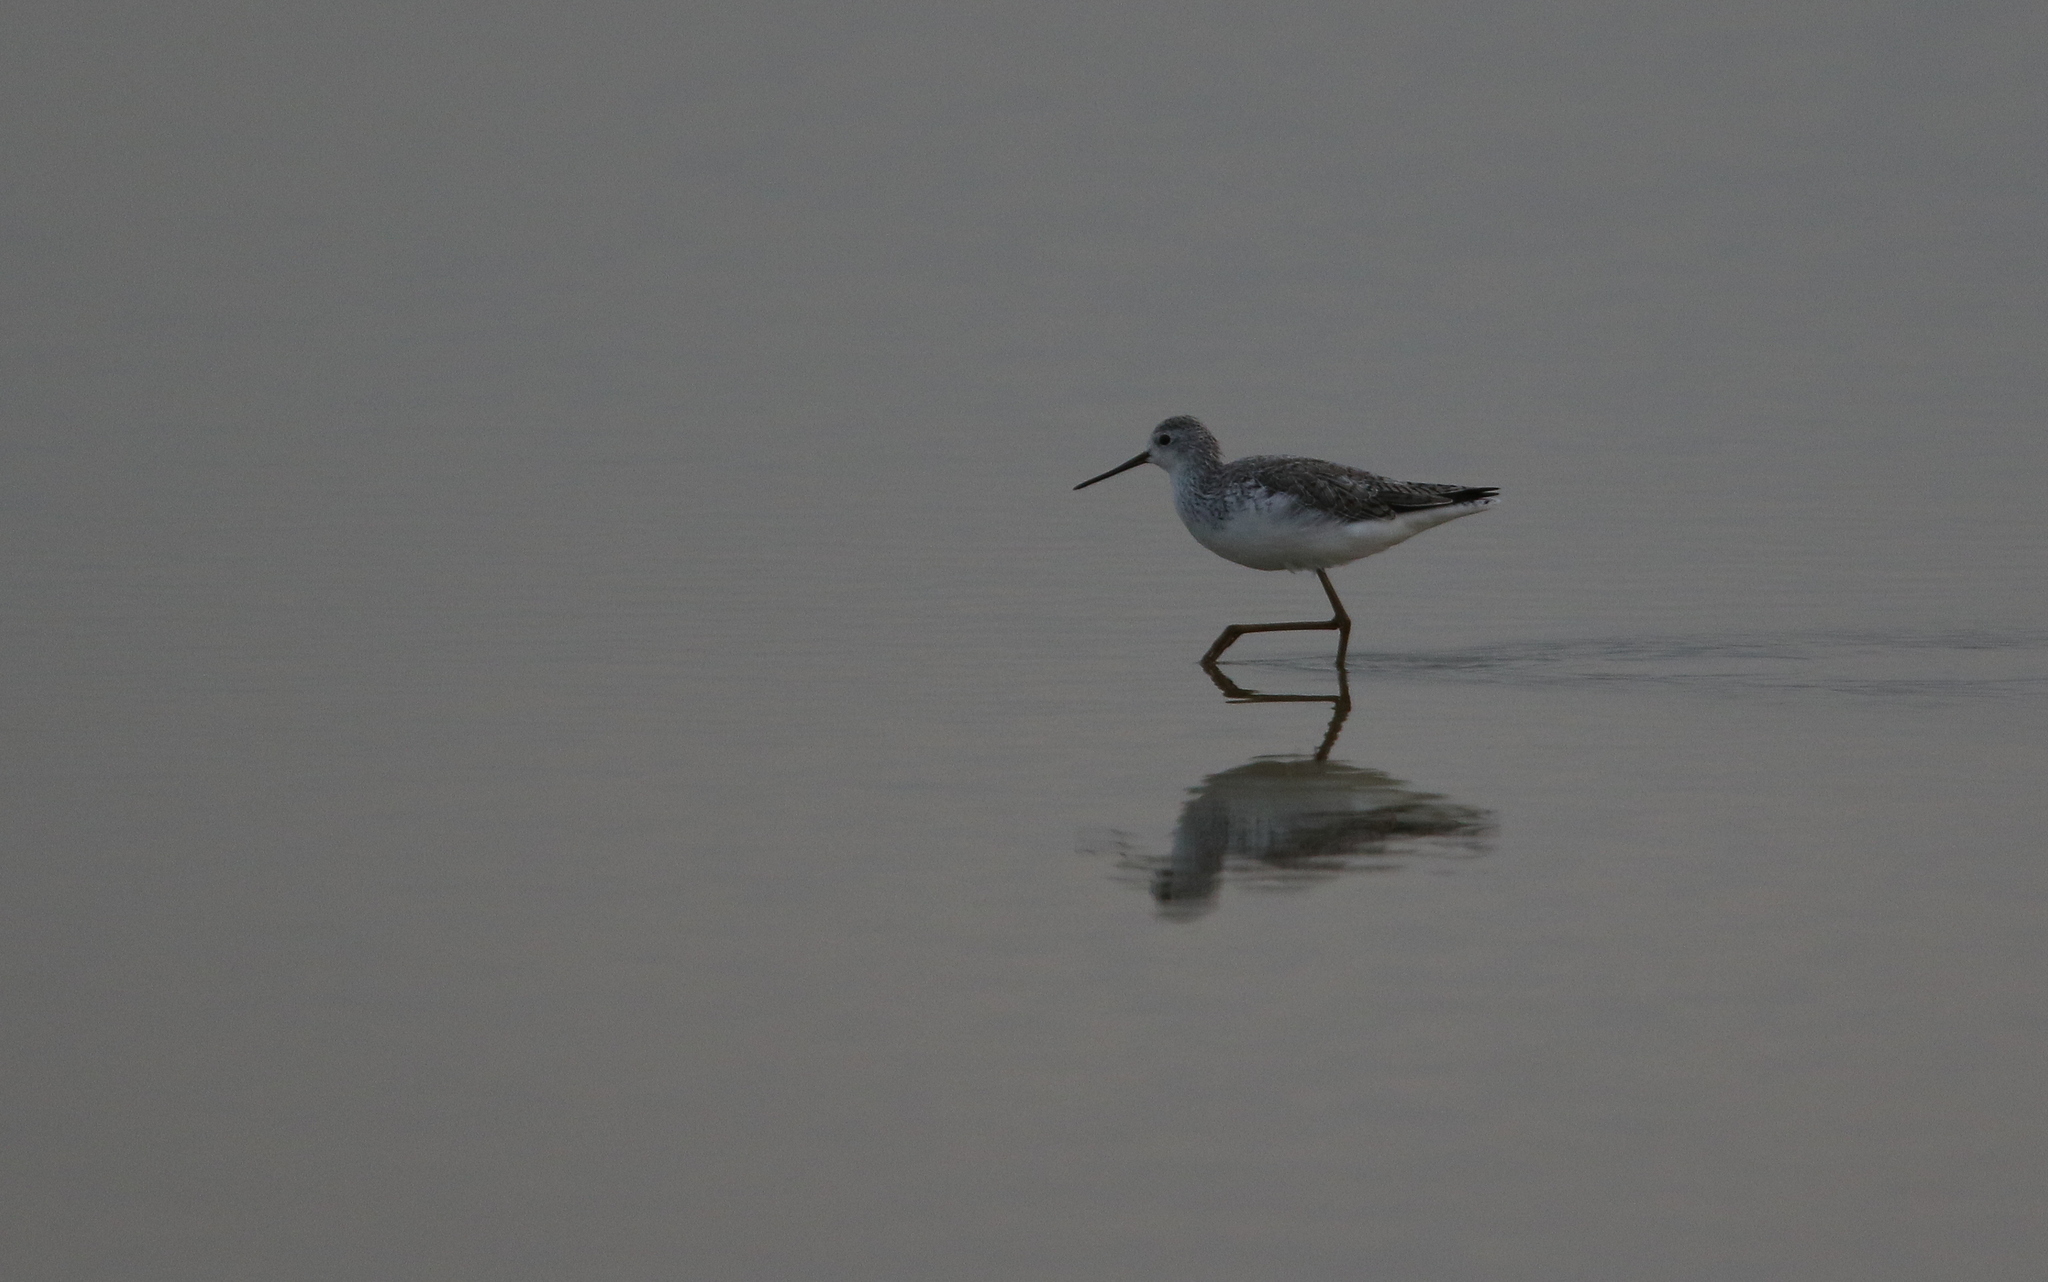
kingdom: Animalia
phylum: Chordata
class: Aves
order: Charadriiformes
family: Scolopacidae
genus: Tringa
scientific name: Tringa stagnatilis
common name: Marsh sandpiper
